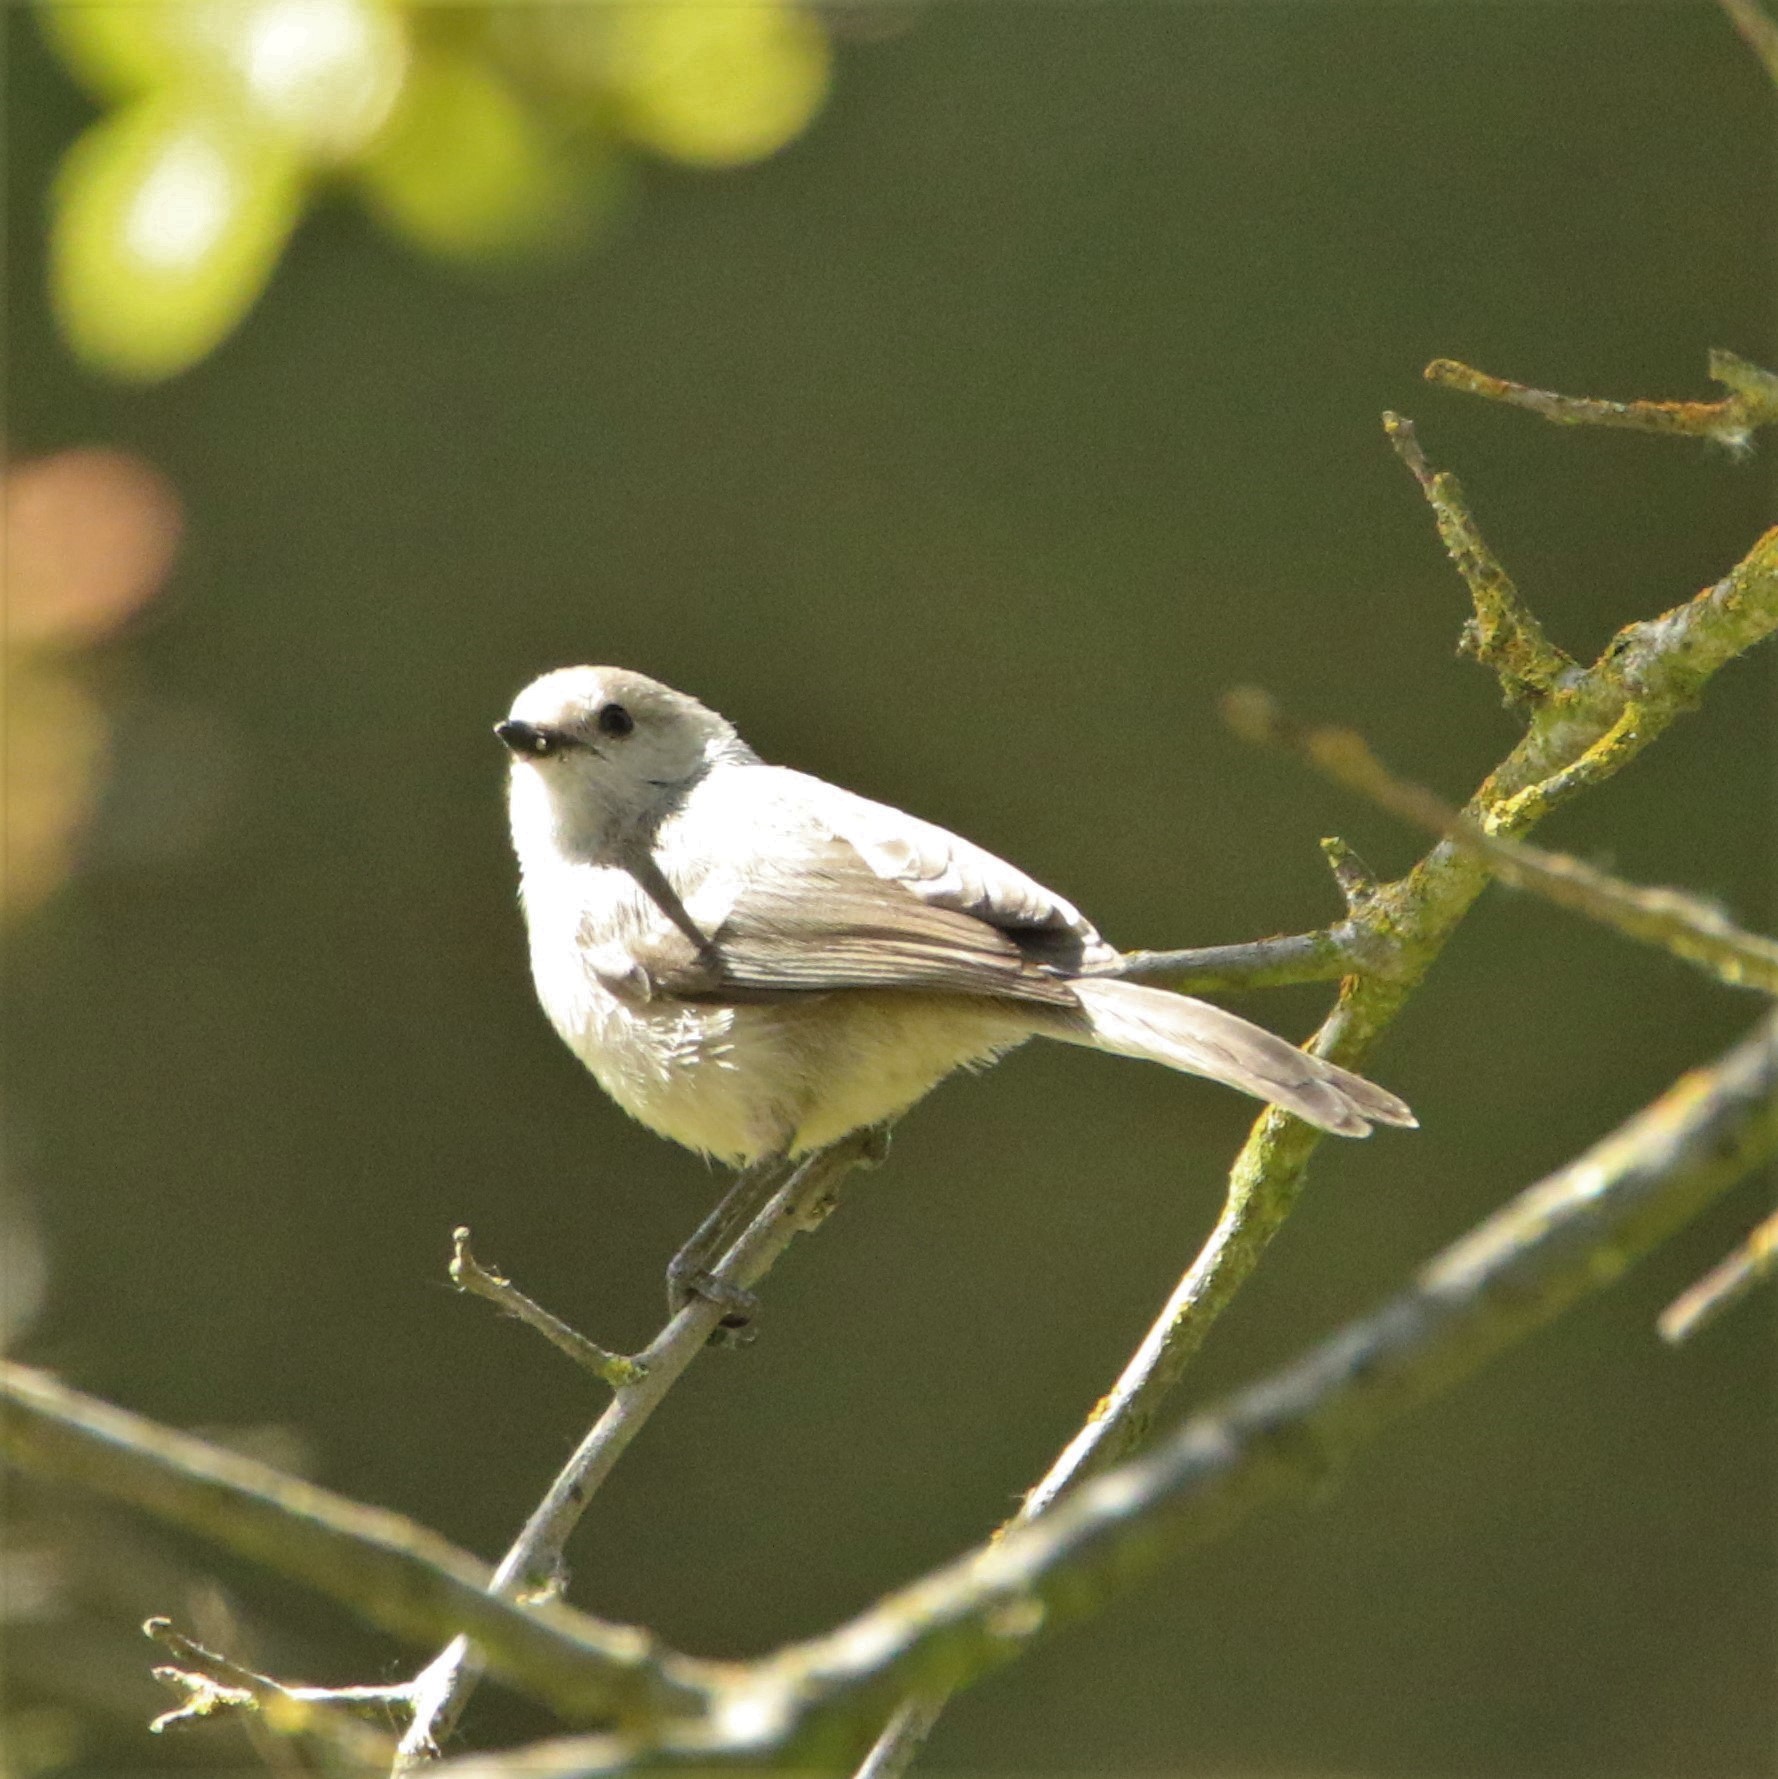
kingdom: Animalia
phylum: Chordata
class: Aves
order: Passeriformes
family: Aegithalidae
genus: Psaltriparus
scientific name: Psaltriparus minimus
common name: American bushtit
